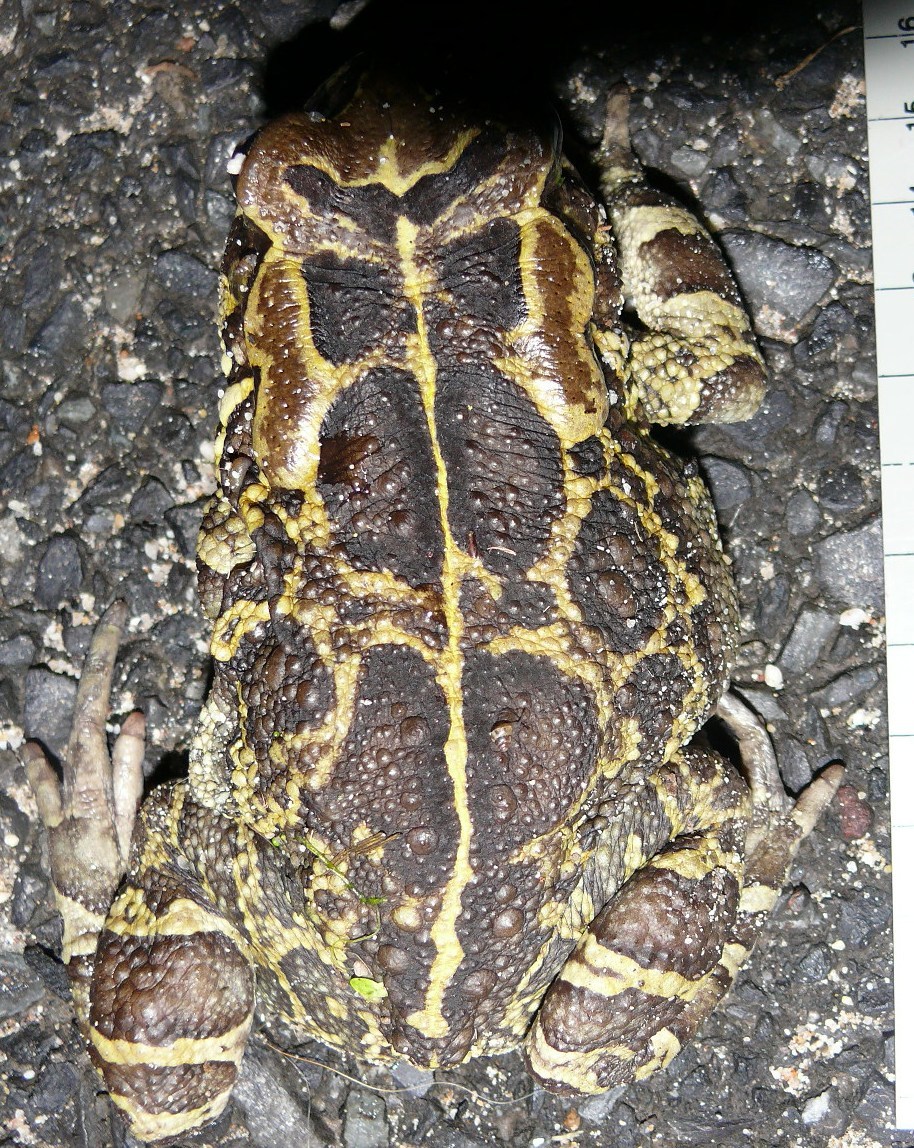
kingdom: Animalia
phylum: Chordata
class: Amphibia
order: Anura
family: Bufonidae
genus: Sclerophrys
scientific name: Sclerophrys pantherina
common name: Panther toad
